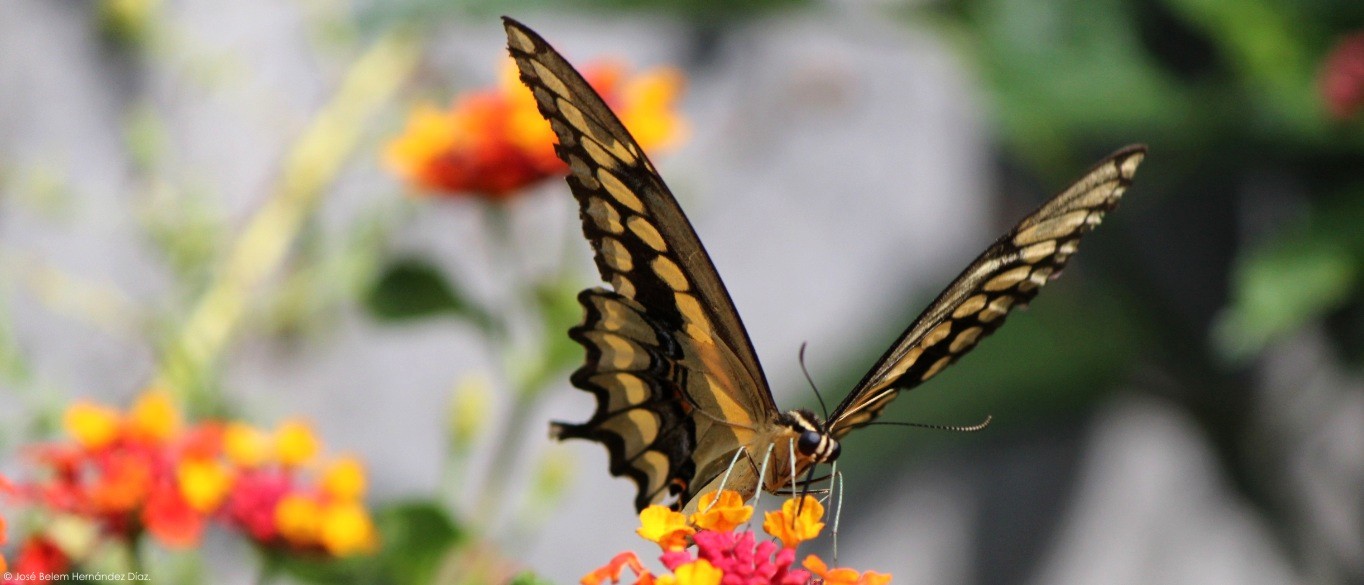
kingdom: Animalia
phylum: Arthropoda
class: Insecta
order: Lepidoptera
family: Papilionidae
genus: Papilio
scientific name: Papilio rumiko
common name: Western giant swallowtail
